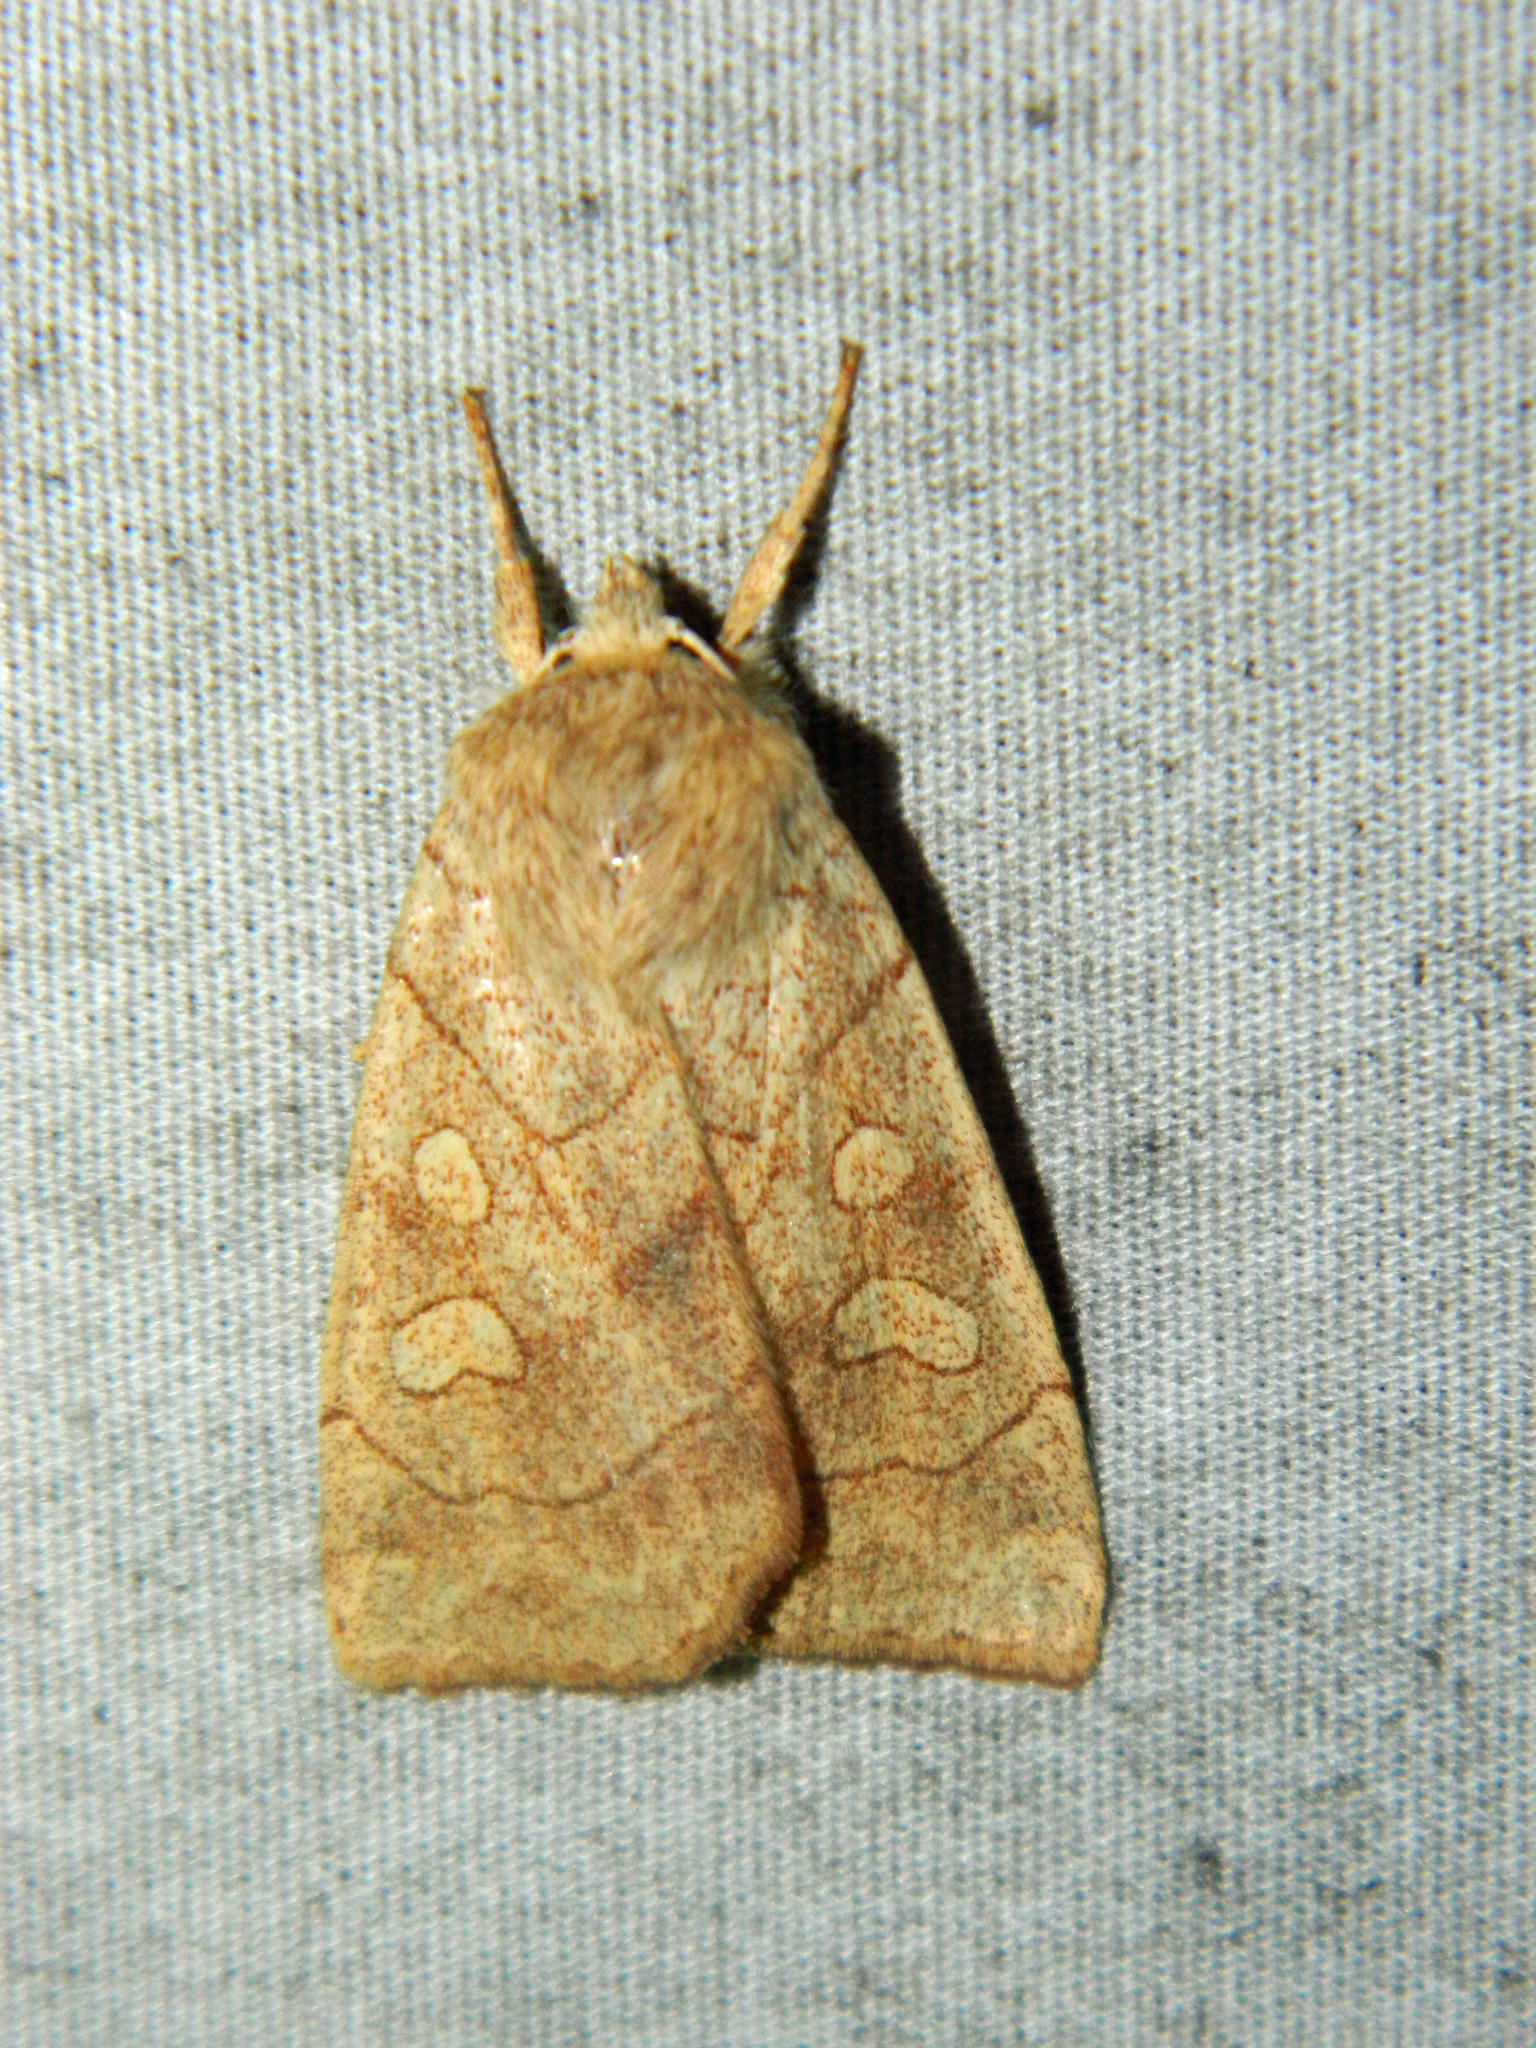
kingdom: Animalia
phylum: Arthropoda
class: Insecta
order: Lepidoptera
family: Noctuidae
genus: Enargia
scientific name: Enargia decolor
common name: Aspen twoleaf tier moth
